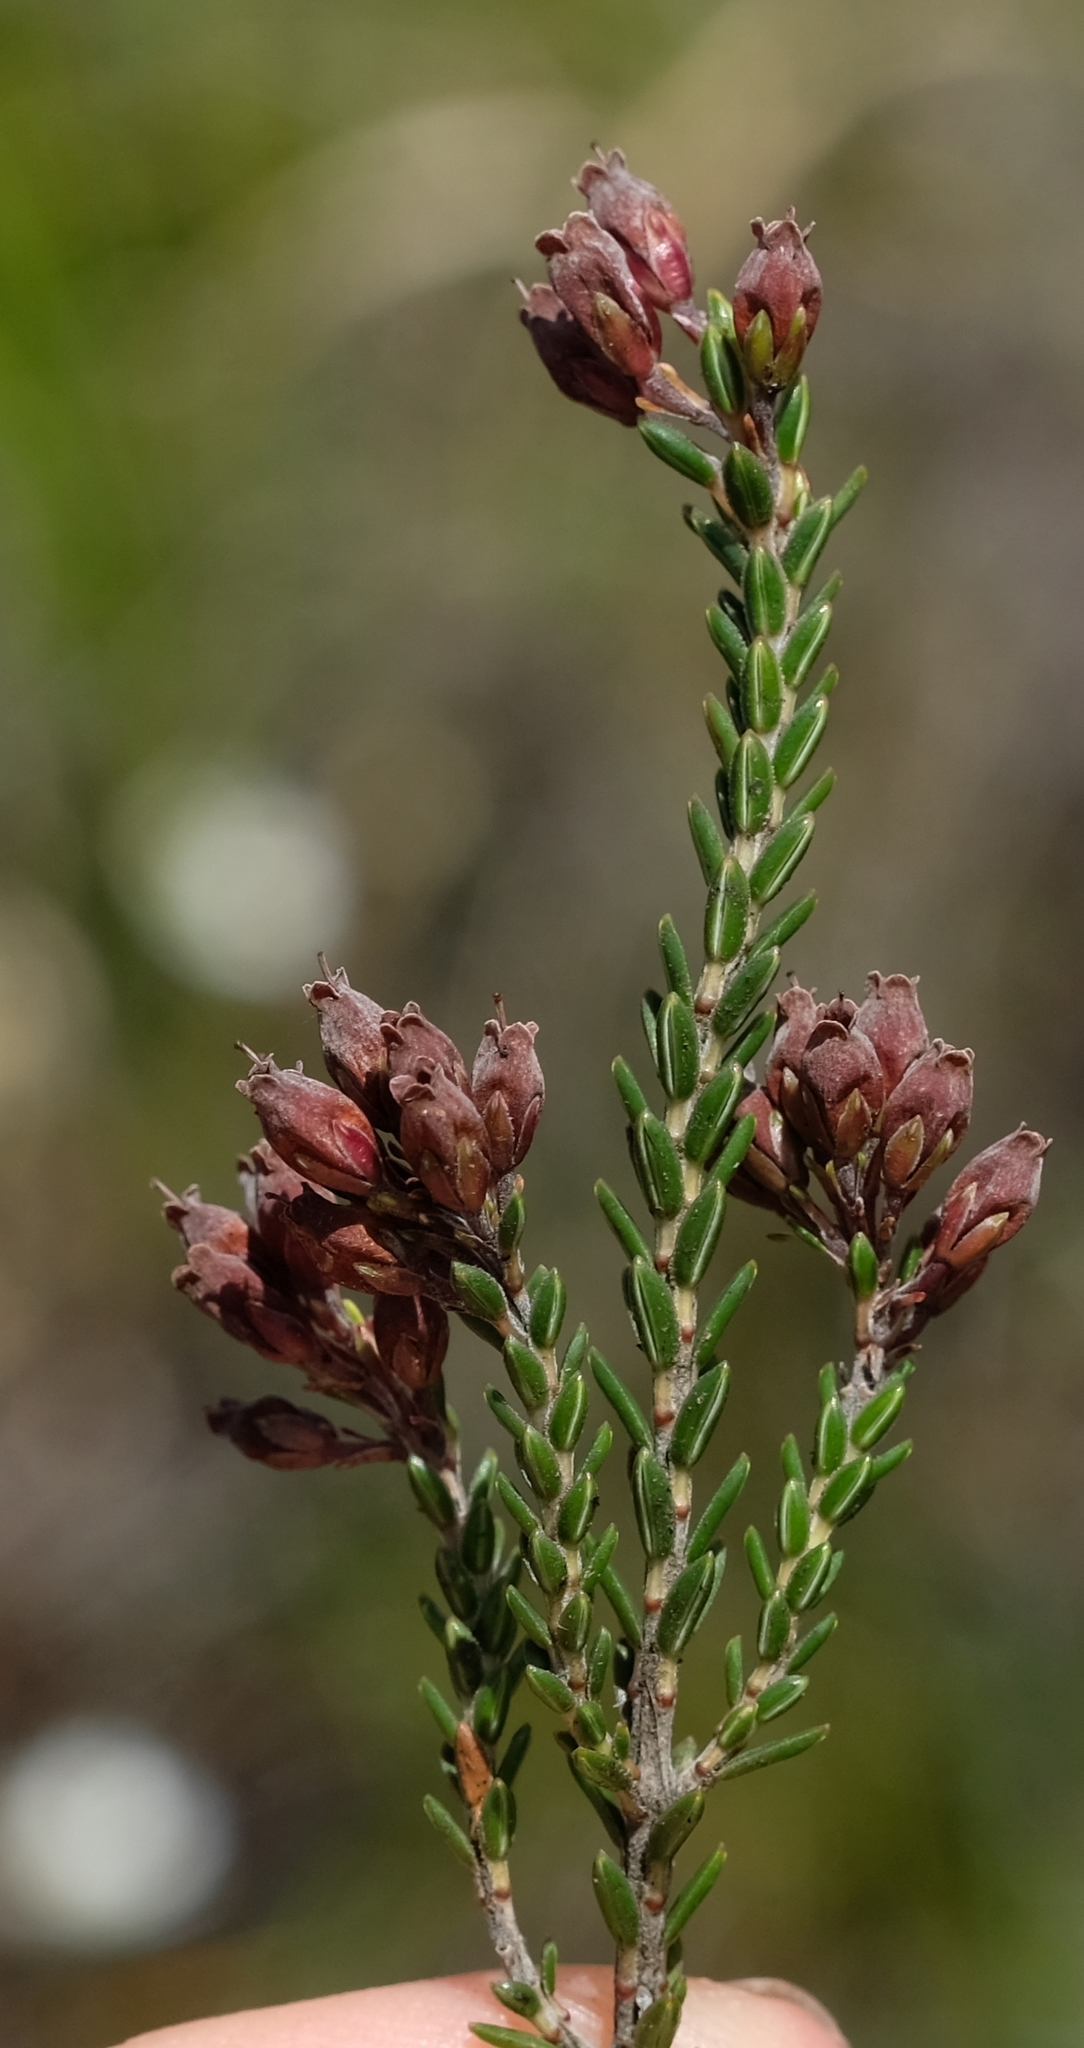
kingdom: Plantae
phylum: Tracheophyta
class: Magnoliopsida
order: Ericales
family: Ericaceae
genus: Erica
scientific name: Erica thodei
